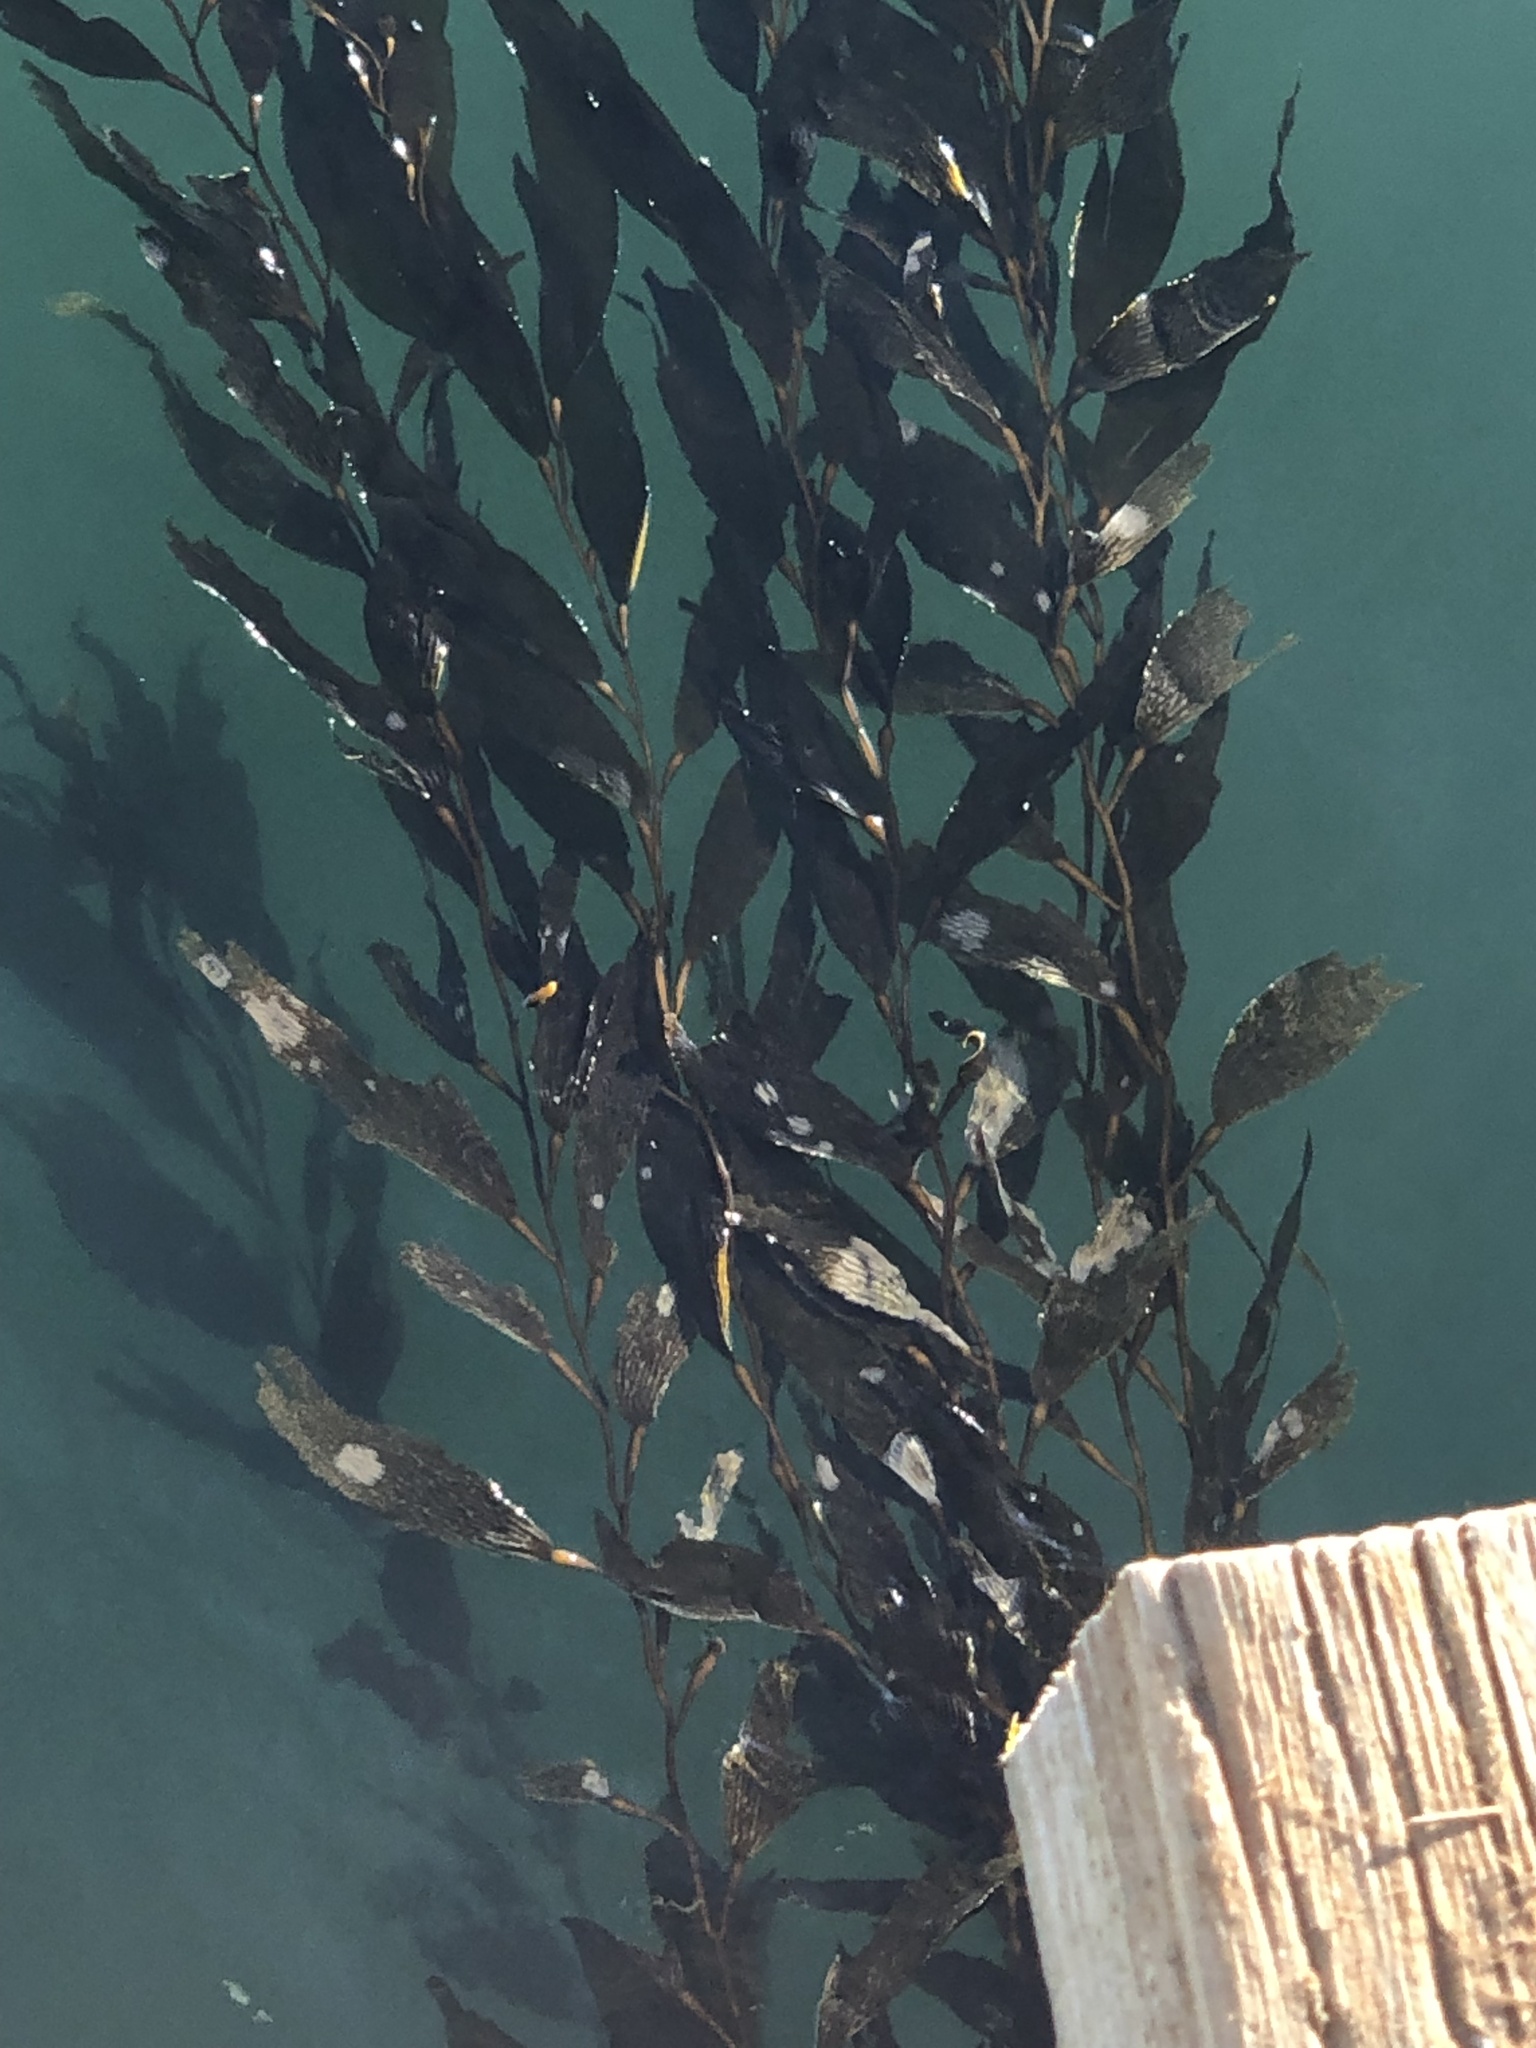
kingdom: Chromista
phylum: Ochrophyta
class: Phaeophyceae
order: Laminariales
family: Laminariaceae
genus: Macrocystis
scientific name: Macrocystis pyrifera
